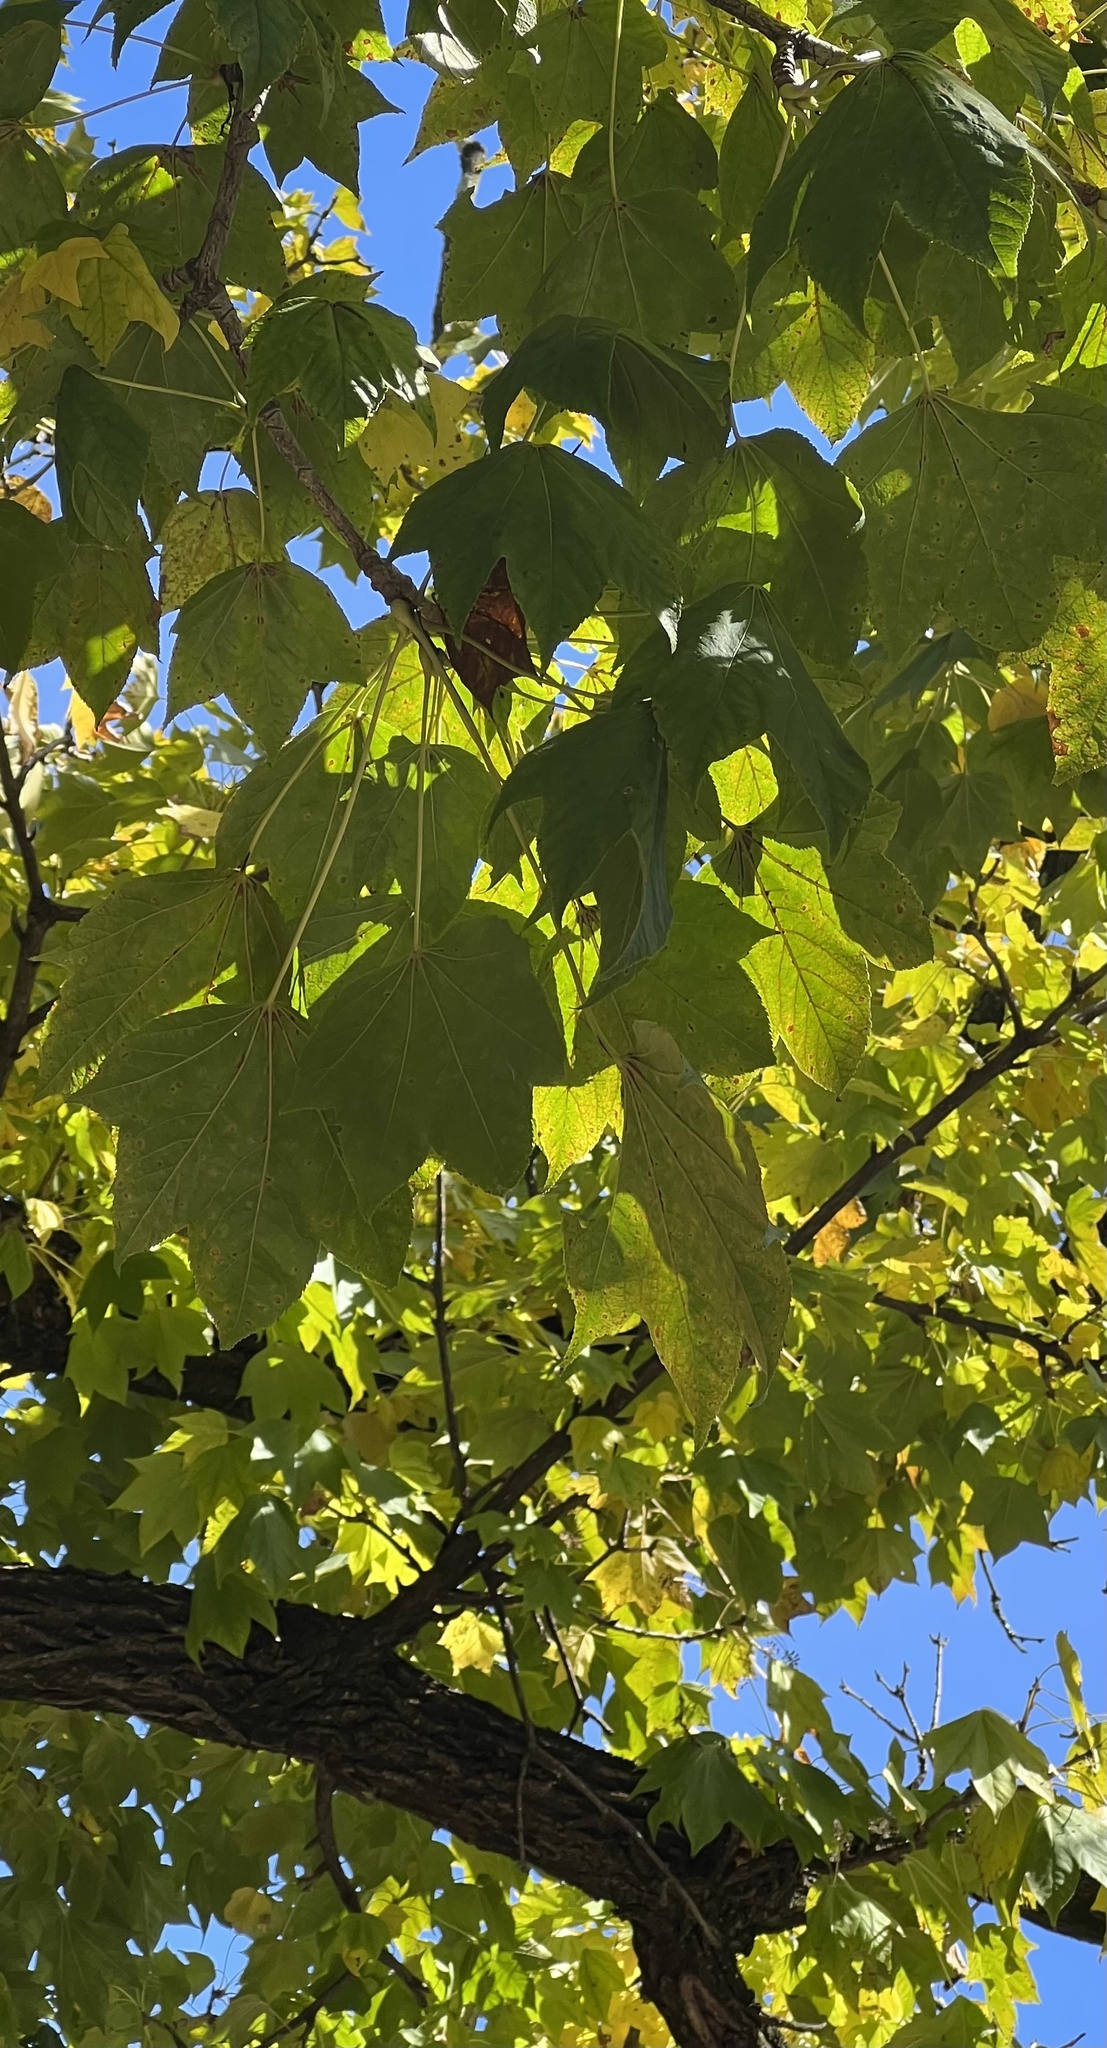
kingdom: Plantae
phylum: Tracheophyta
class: Magnoliopsida
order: Apiales
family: Araliaceae
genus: Kalopanax
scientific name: Kalopanax septemlobus
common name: Castor aralia
